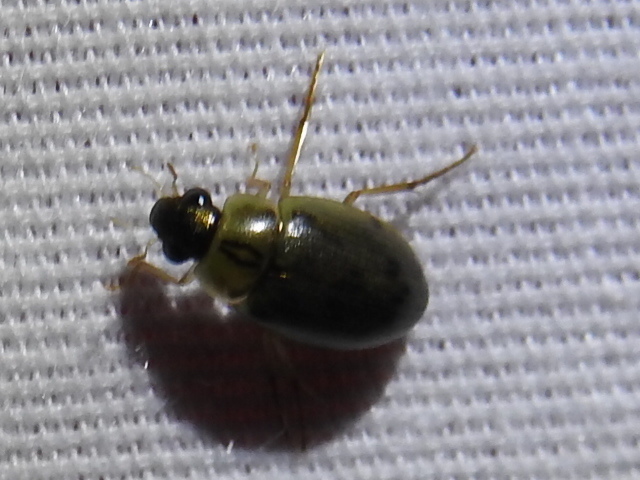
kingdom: Animalia
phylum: Arthropoda
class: Insecta
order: Coleoptera
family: Hydrophilidae
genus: Berosus
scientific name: Berosus
